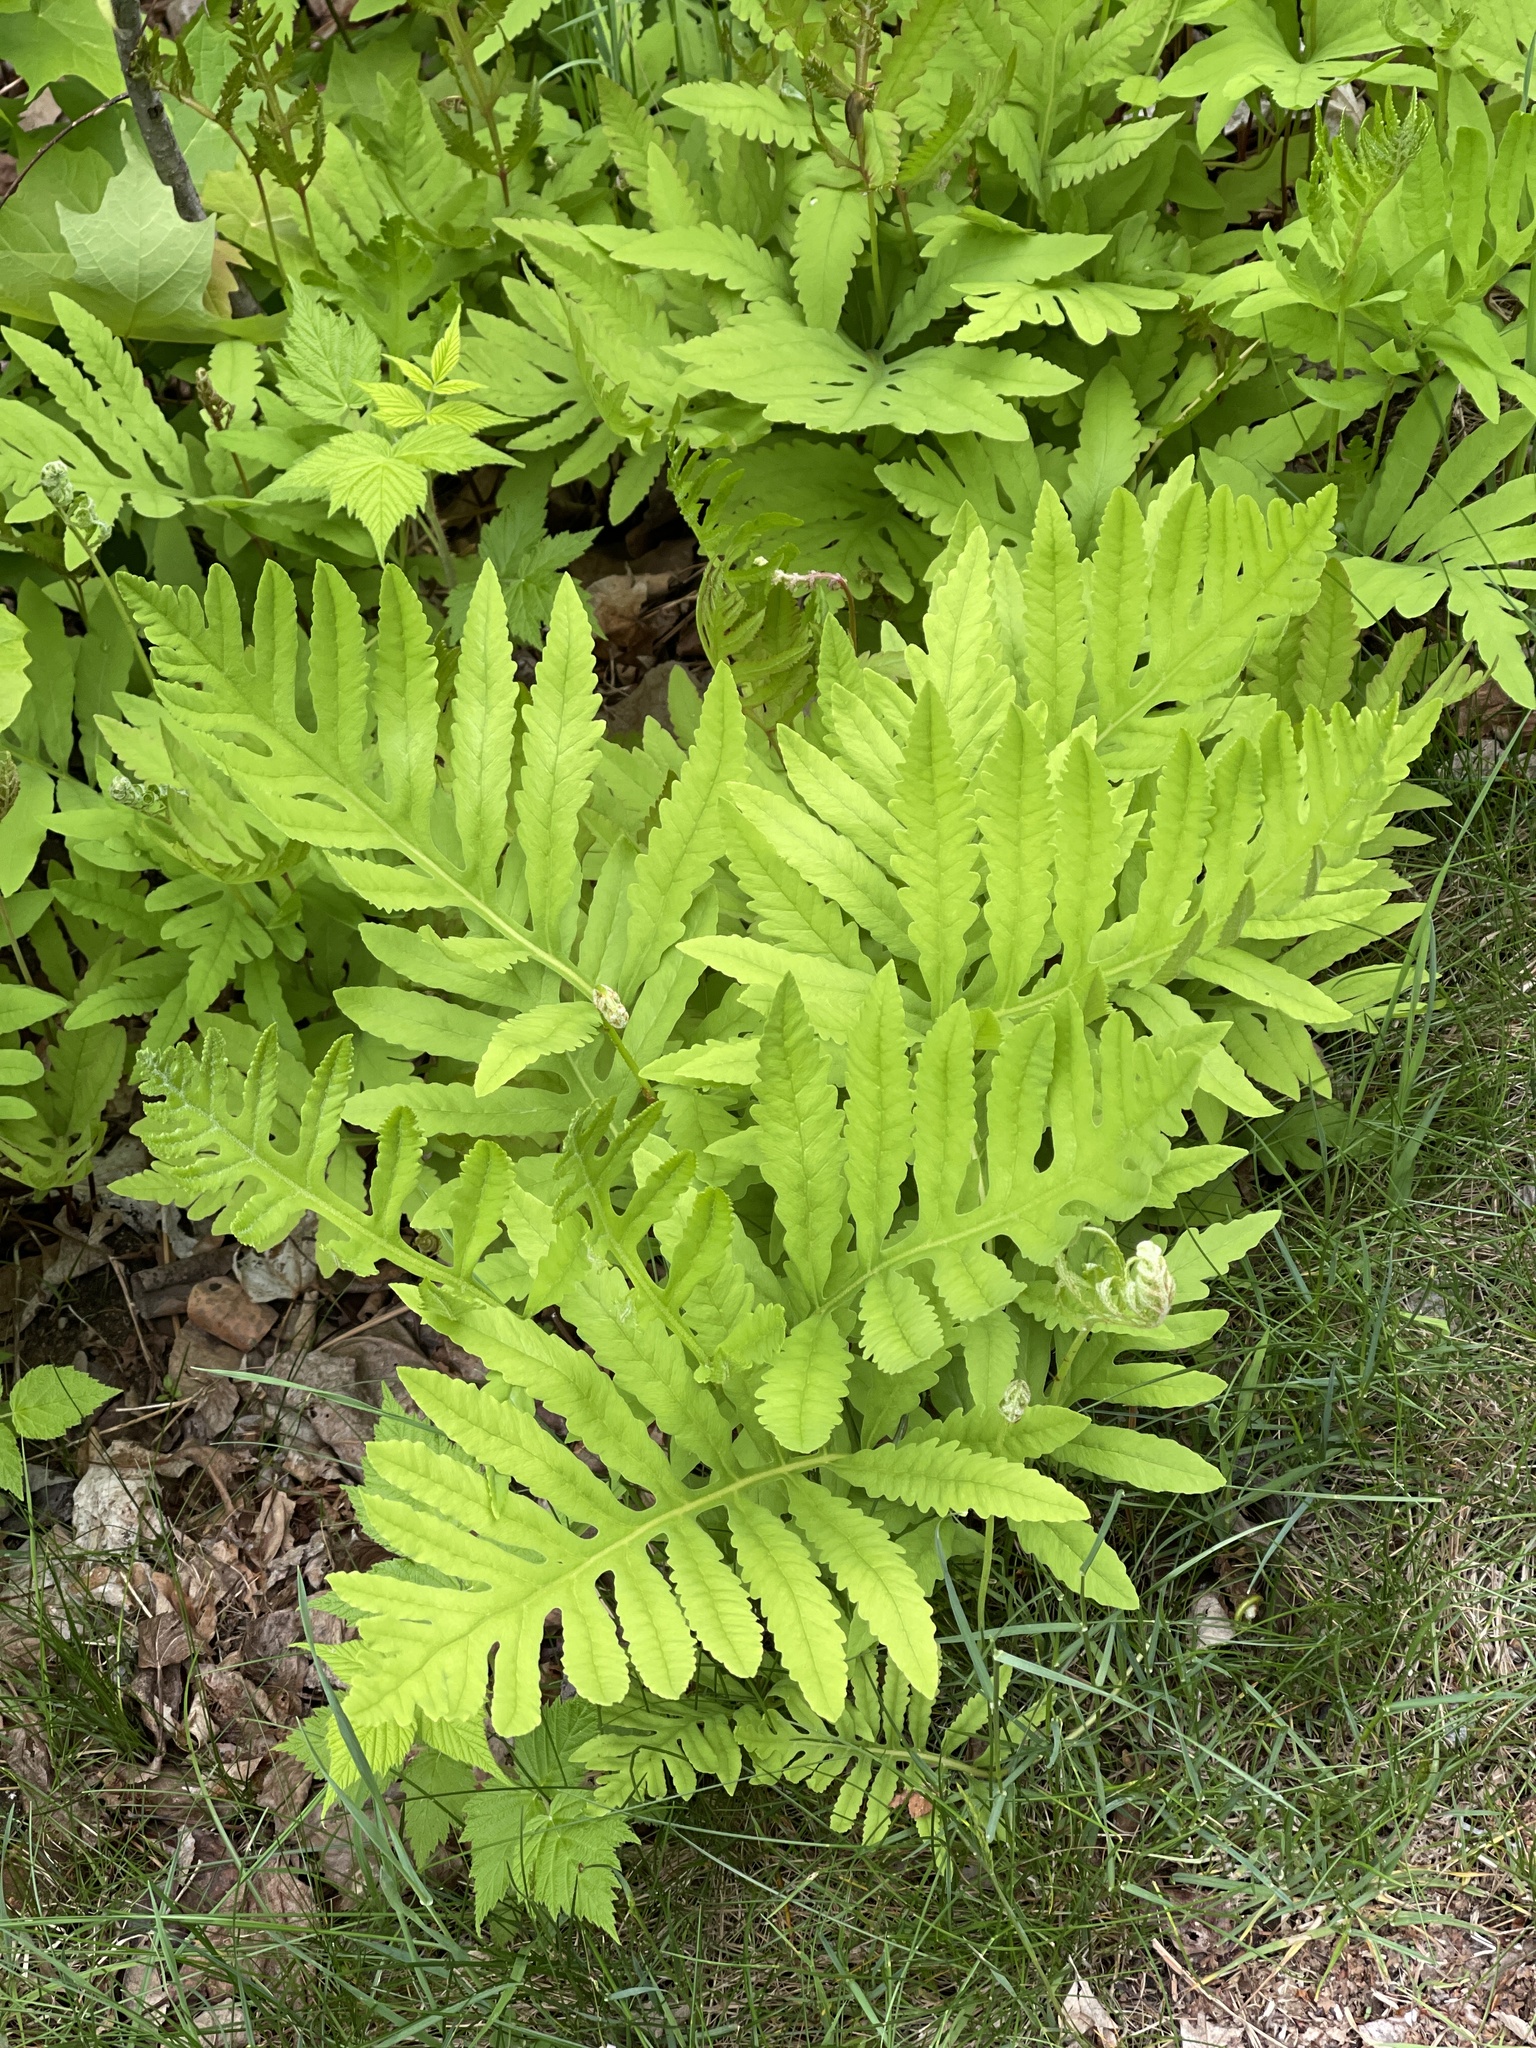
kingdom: Plantae
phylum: Tracheophyta
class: Polypodiopsida
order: Polypodiales
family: Onocleaceae
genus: Onoclea
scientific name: Onoclea sensibilis
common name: Sensitive fern
